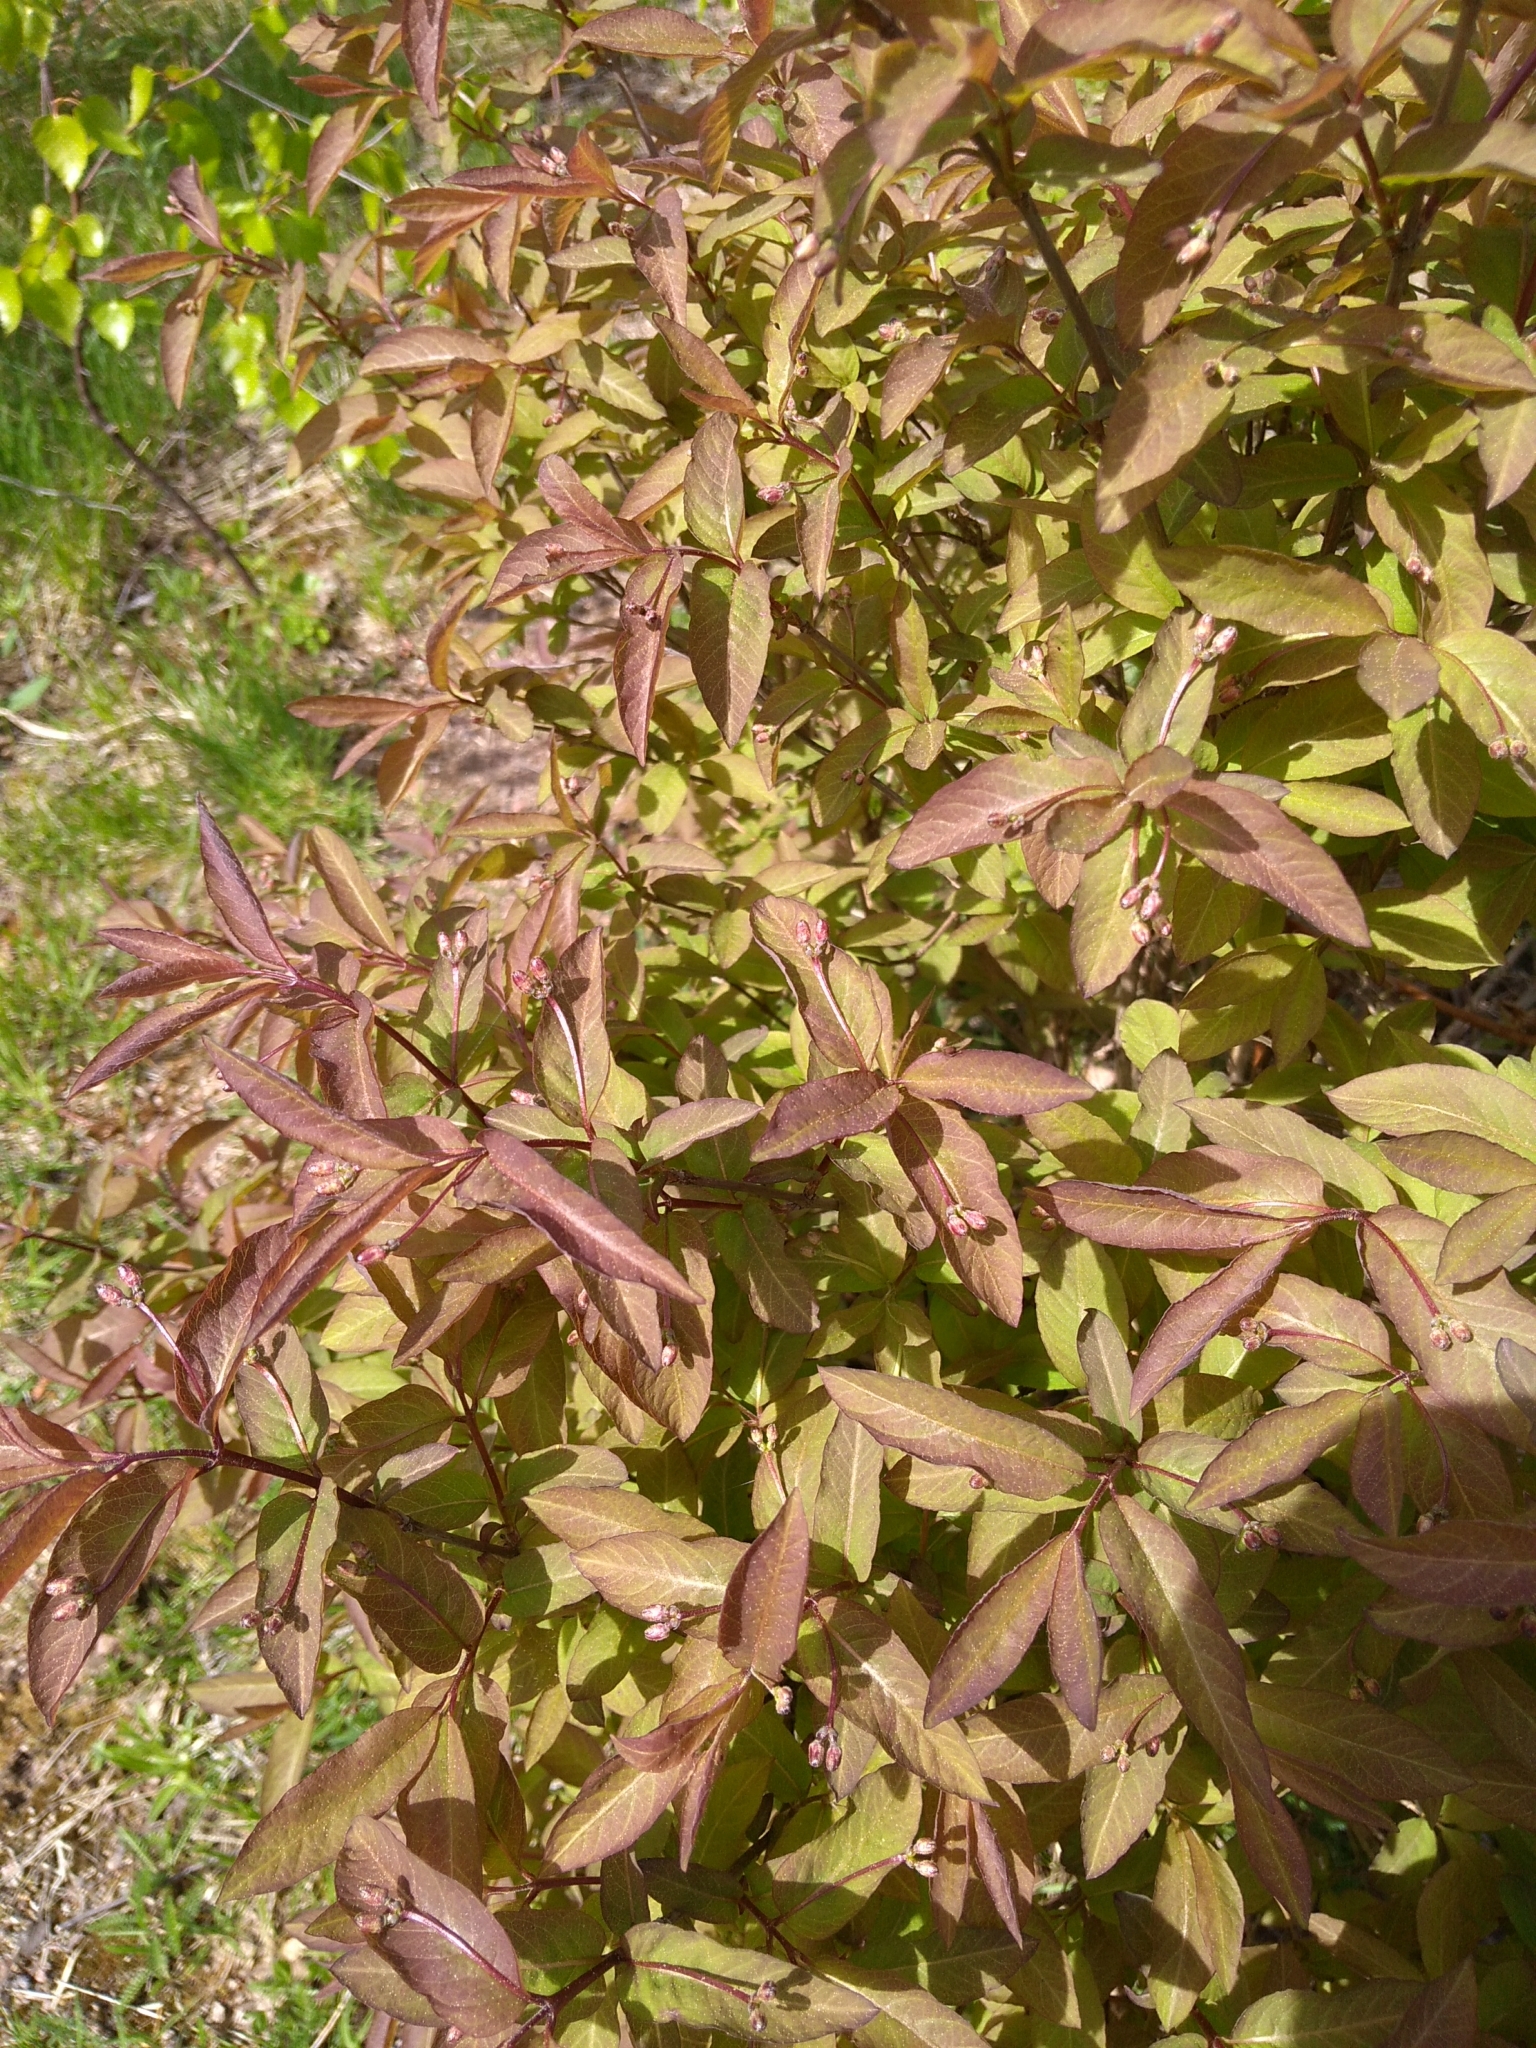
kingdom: Plantae
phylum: Tracheophyta
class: Magnoliopsida
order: Dipsacales
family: Caprifoliaceae
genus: Lonicera
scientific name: Lonicera nigra
